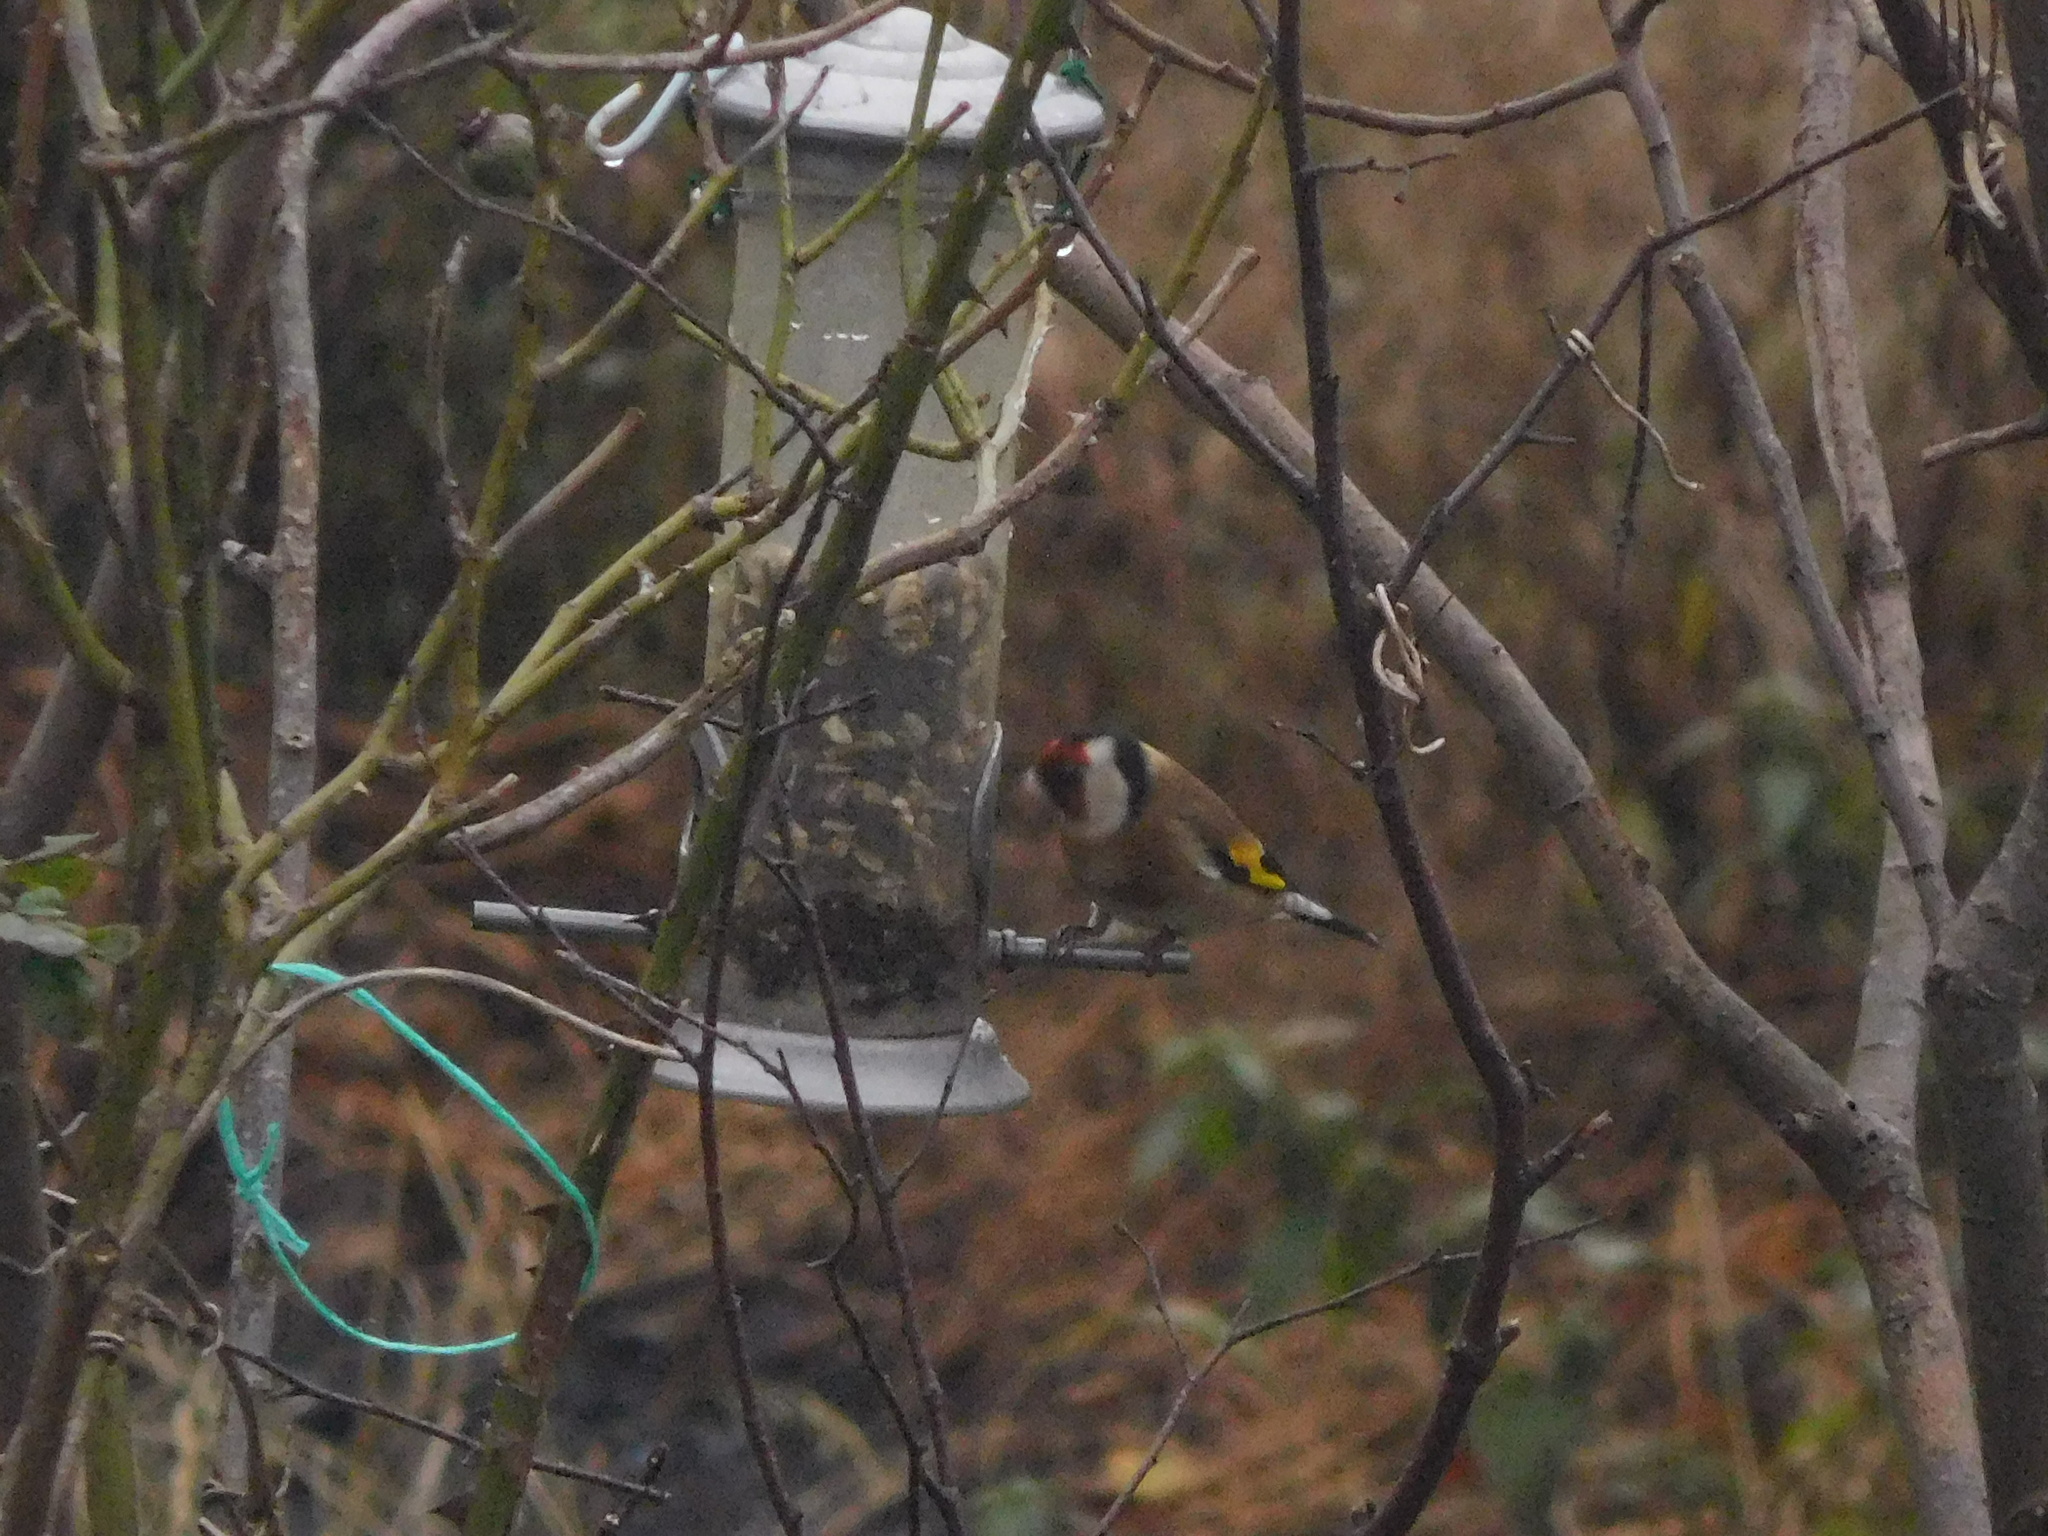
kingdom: Animalia
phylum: Chordata
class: Aves
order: Passeriformes
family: Fringillidae
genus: Carduelis
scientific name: Carduelis carduelis
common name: European goldfinch
